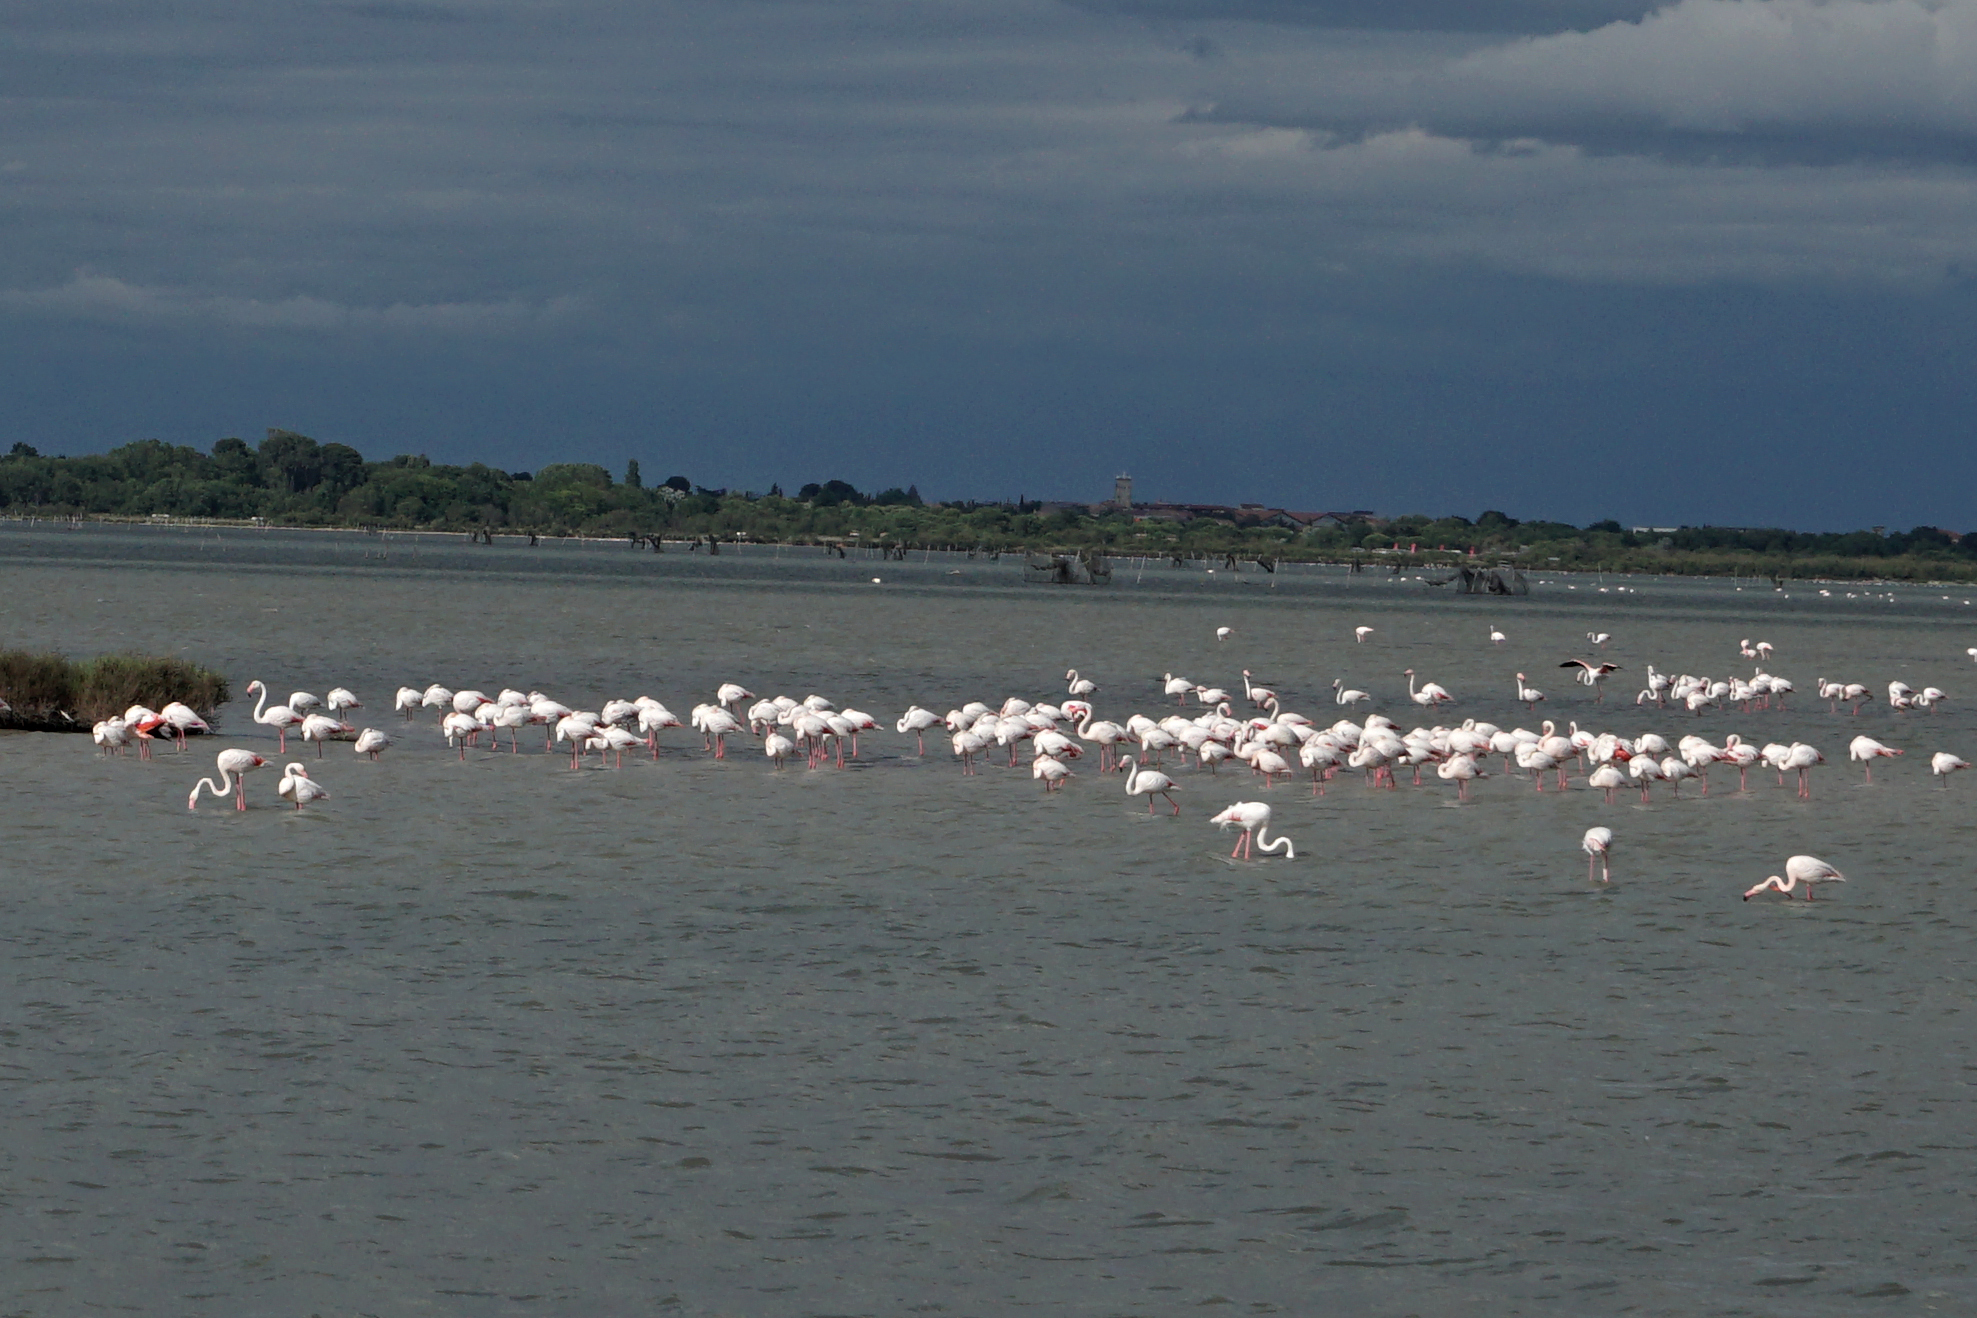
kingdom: Animalia
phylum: Chordata
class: Aves
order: Phoenicopteriformes
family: Phoenicopteridae
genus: Phoenicopterus
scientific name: Phoenicopterus roseus
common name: Greater flamingo
